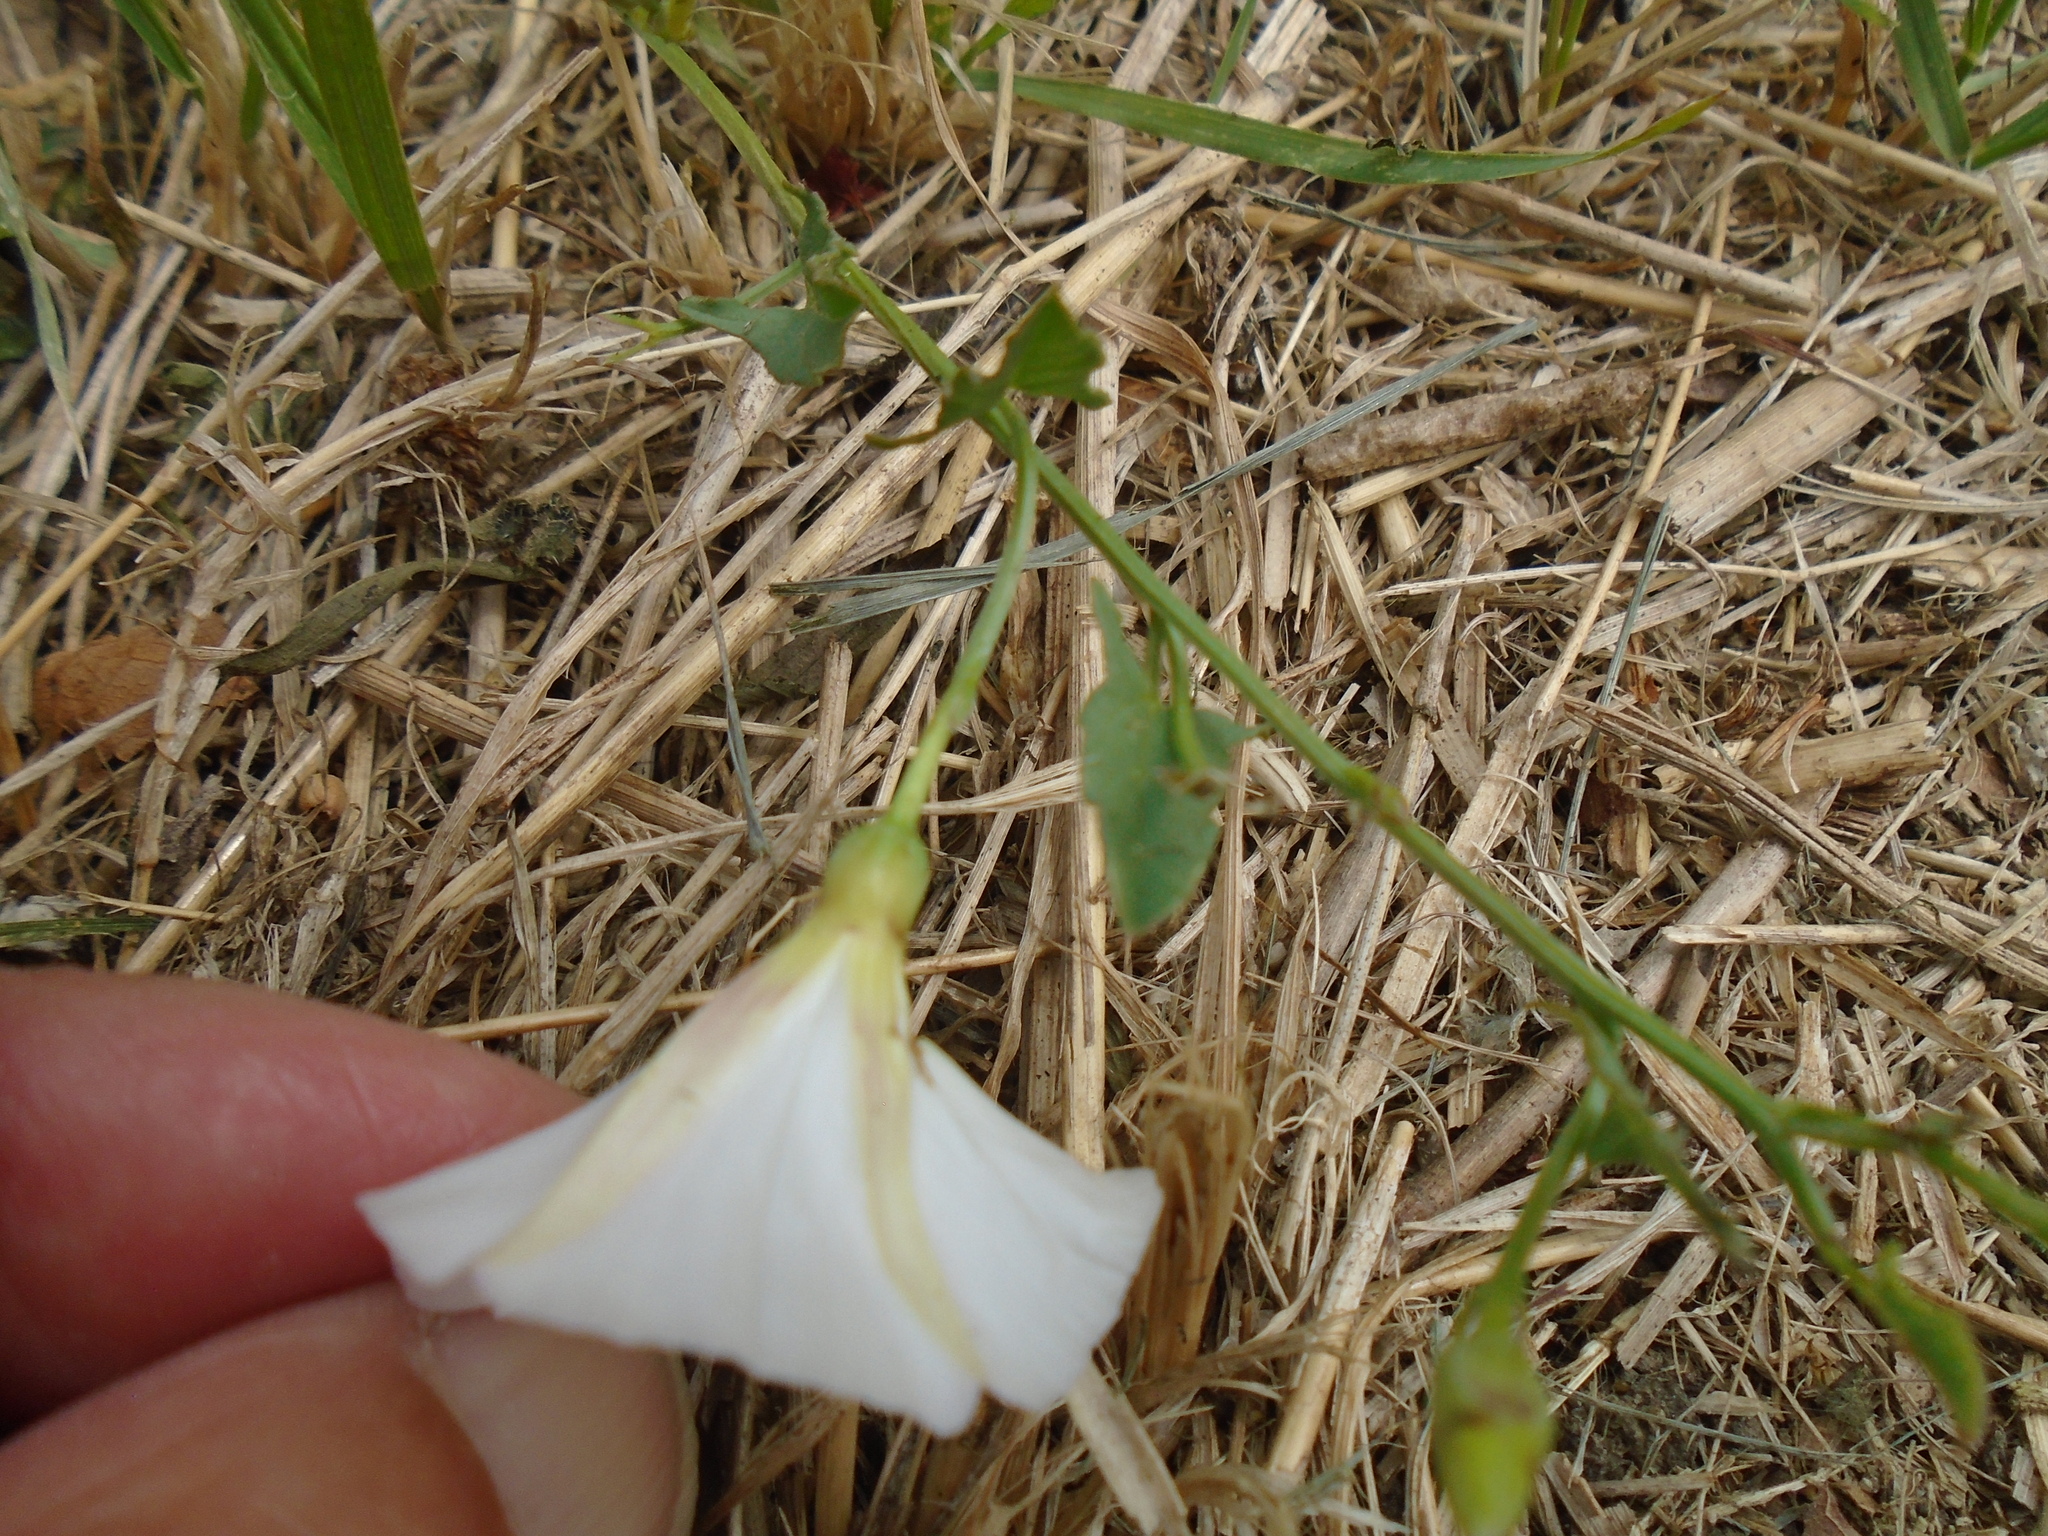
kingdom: Plantae
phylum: Tracheophyta
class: Magnoliopsida
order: Solanales
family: Convolvulaceae
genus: Convolvulus
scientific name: Convolvulus arvensis
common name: Field bindweed
